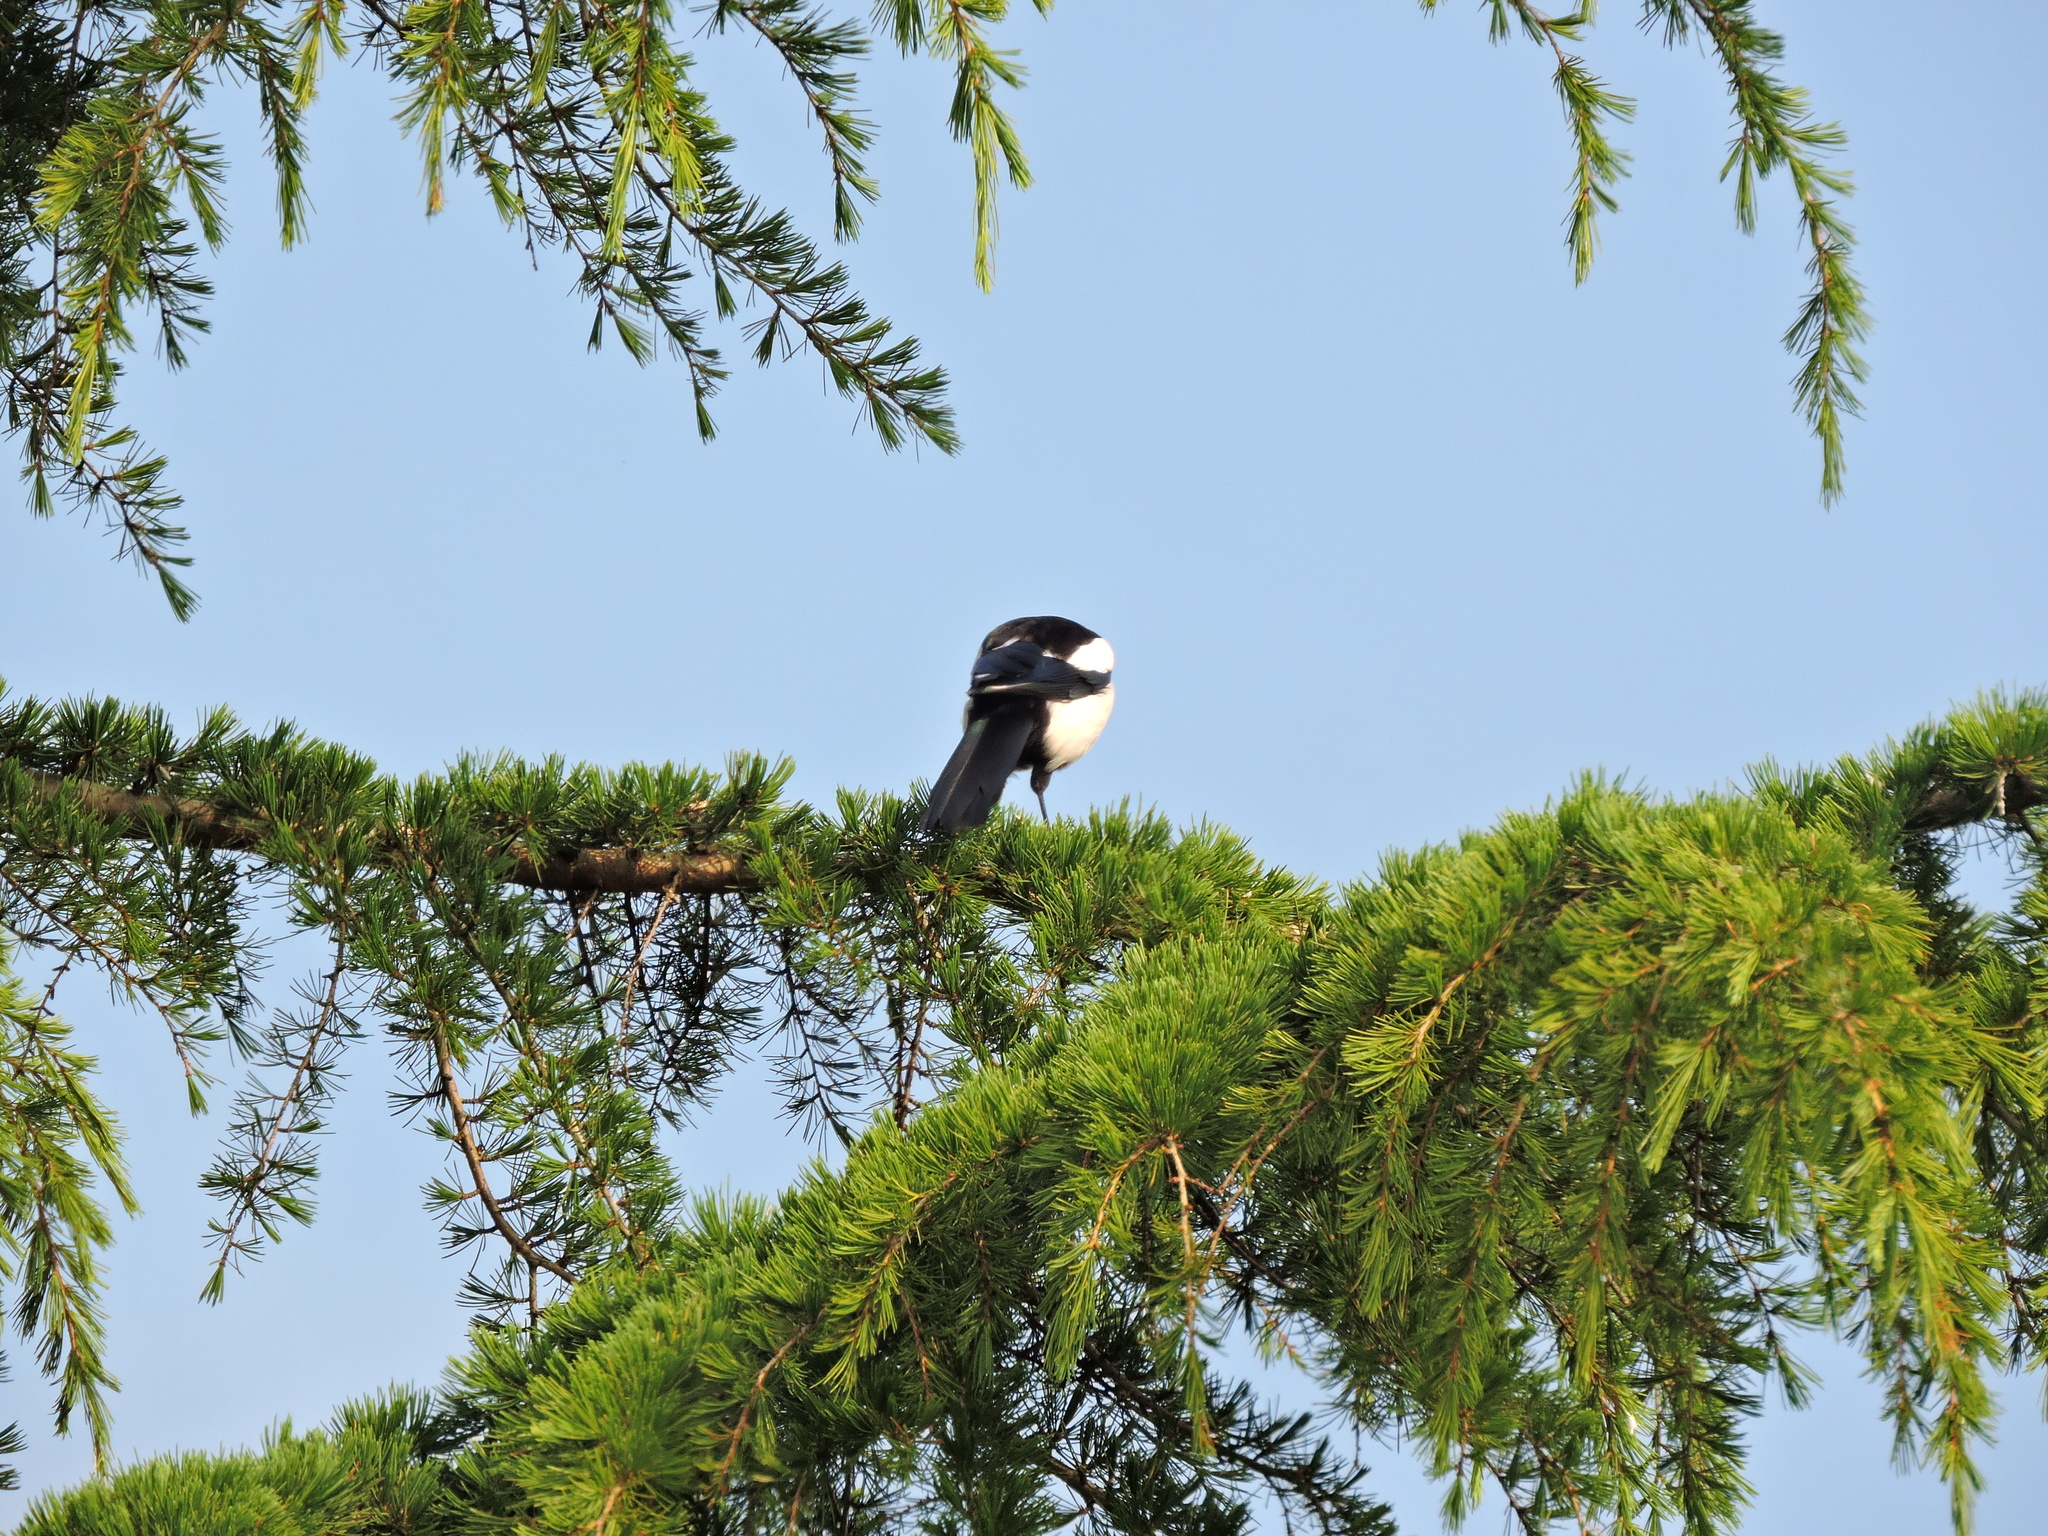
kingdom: Animalia
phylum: Chordata
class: Aves
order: Passeriformes
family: Corvidae
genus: Pica
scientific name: Pica pica
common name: Eurasian magpie
